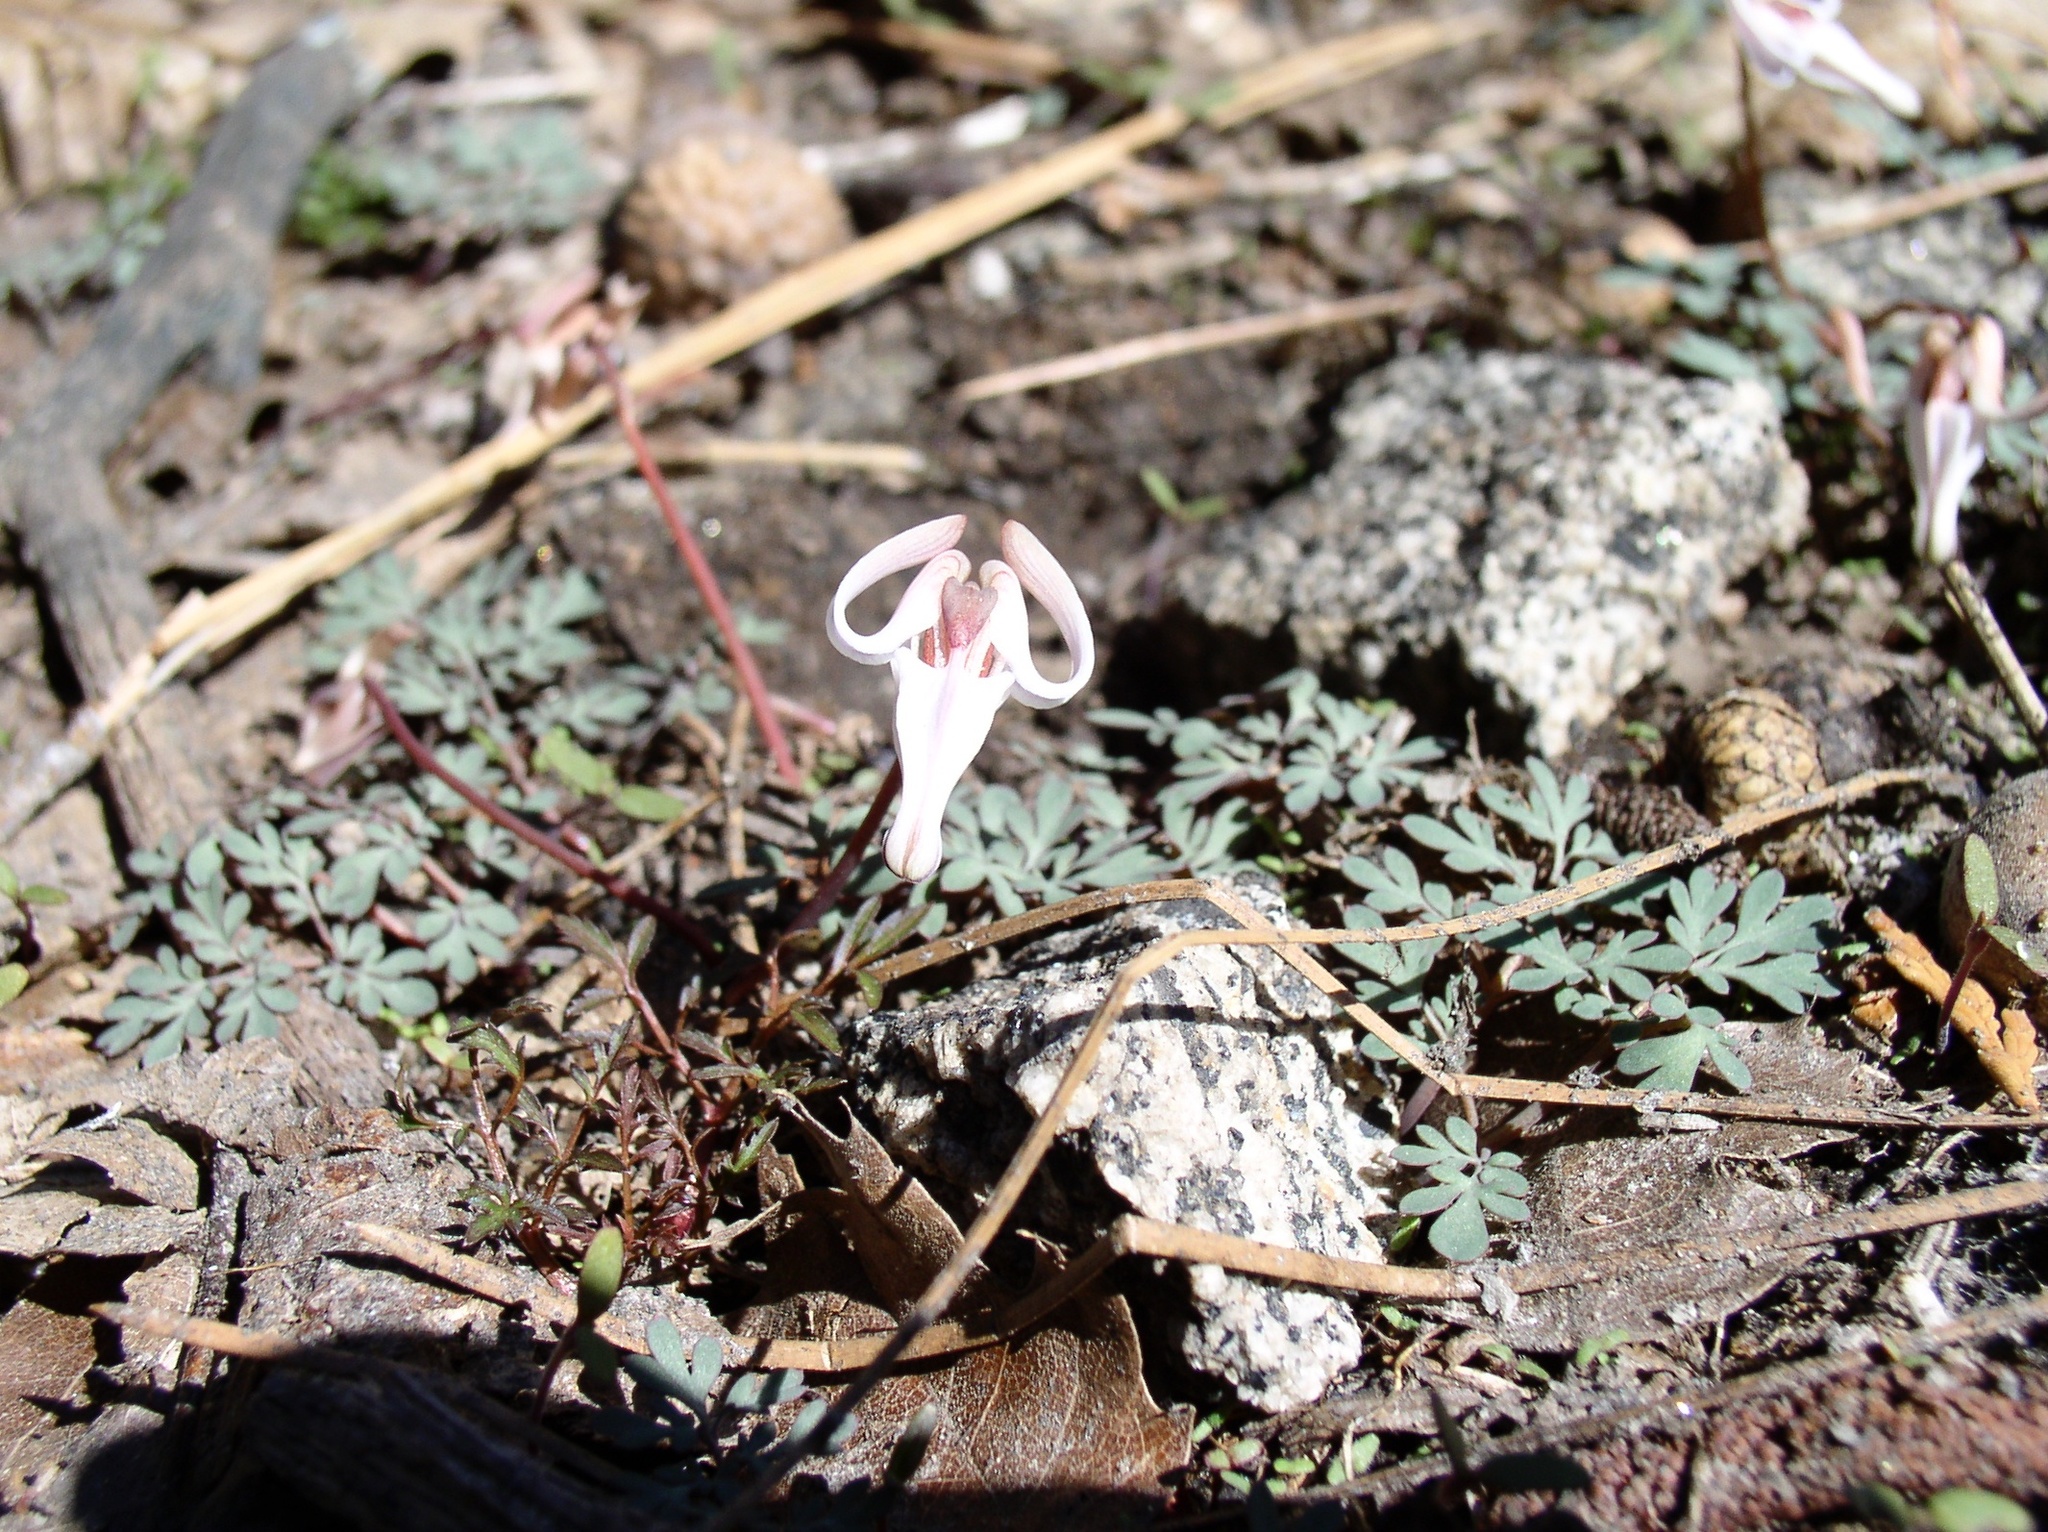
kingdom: Plantae
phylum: Tracheophyta
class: Magnoliopsida
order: Ranunculales
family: Papaveraceae
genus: Dicentra
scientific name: Dicentra uniflora
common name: Steer's-head
